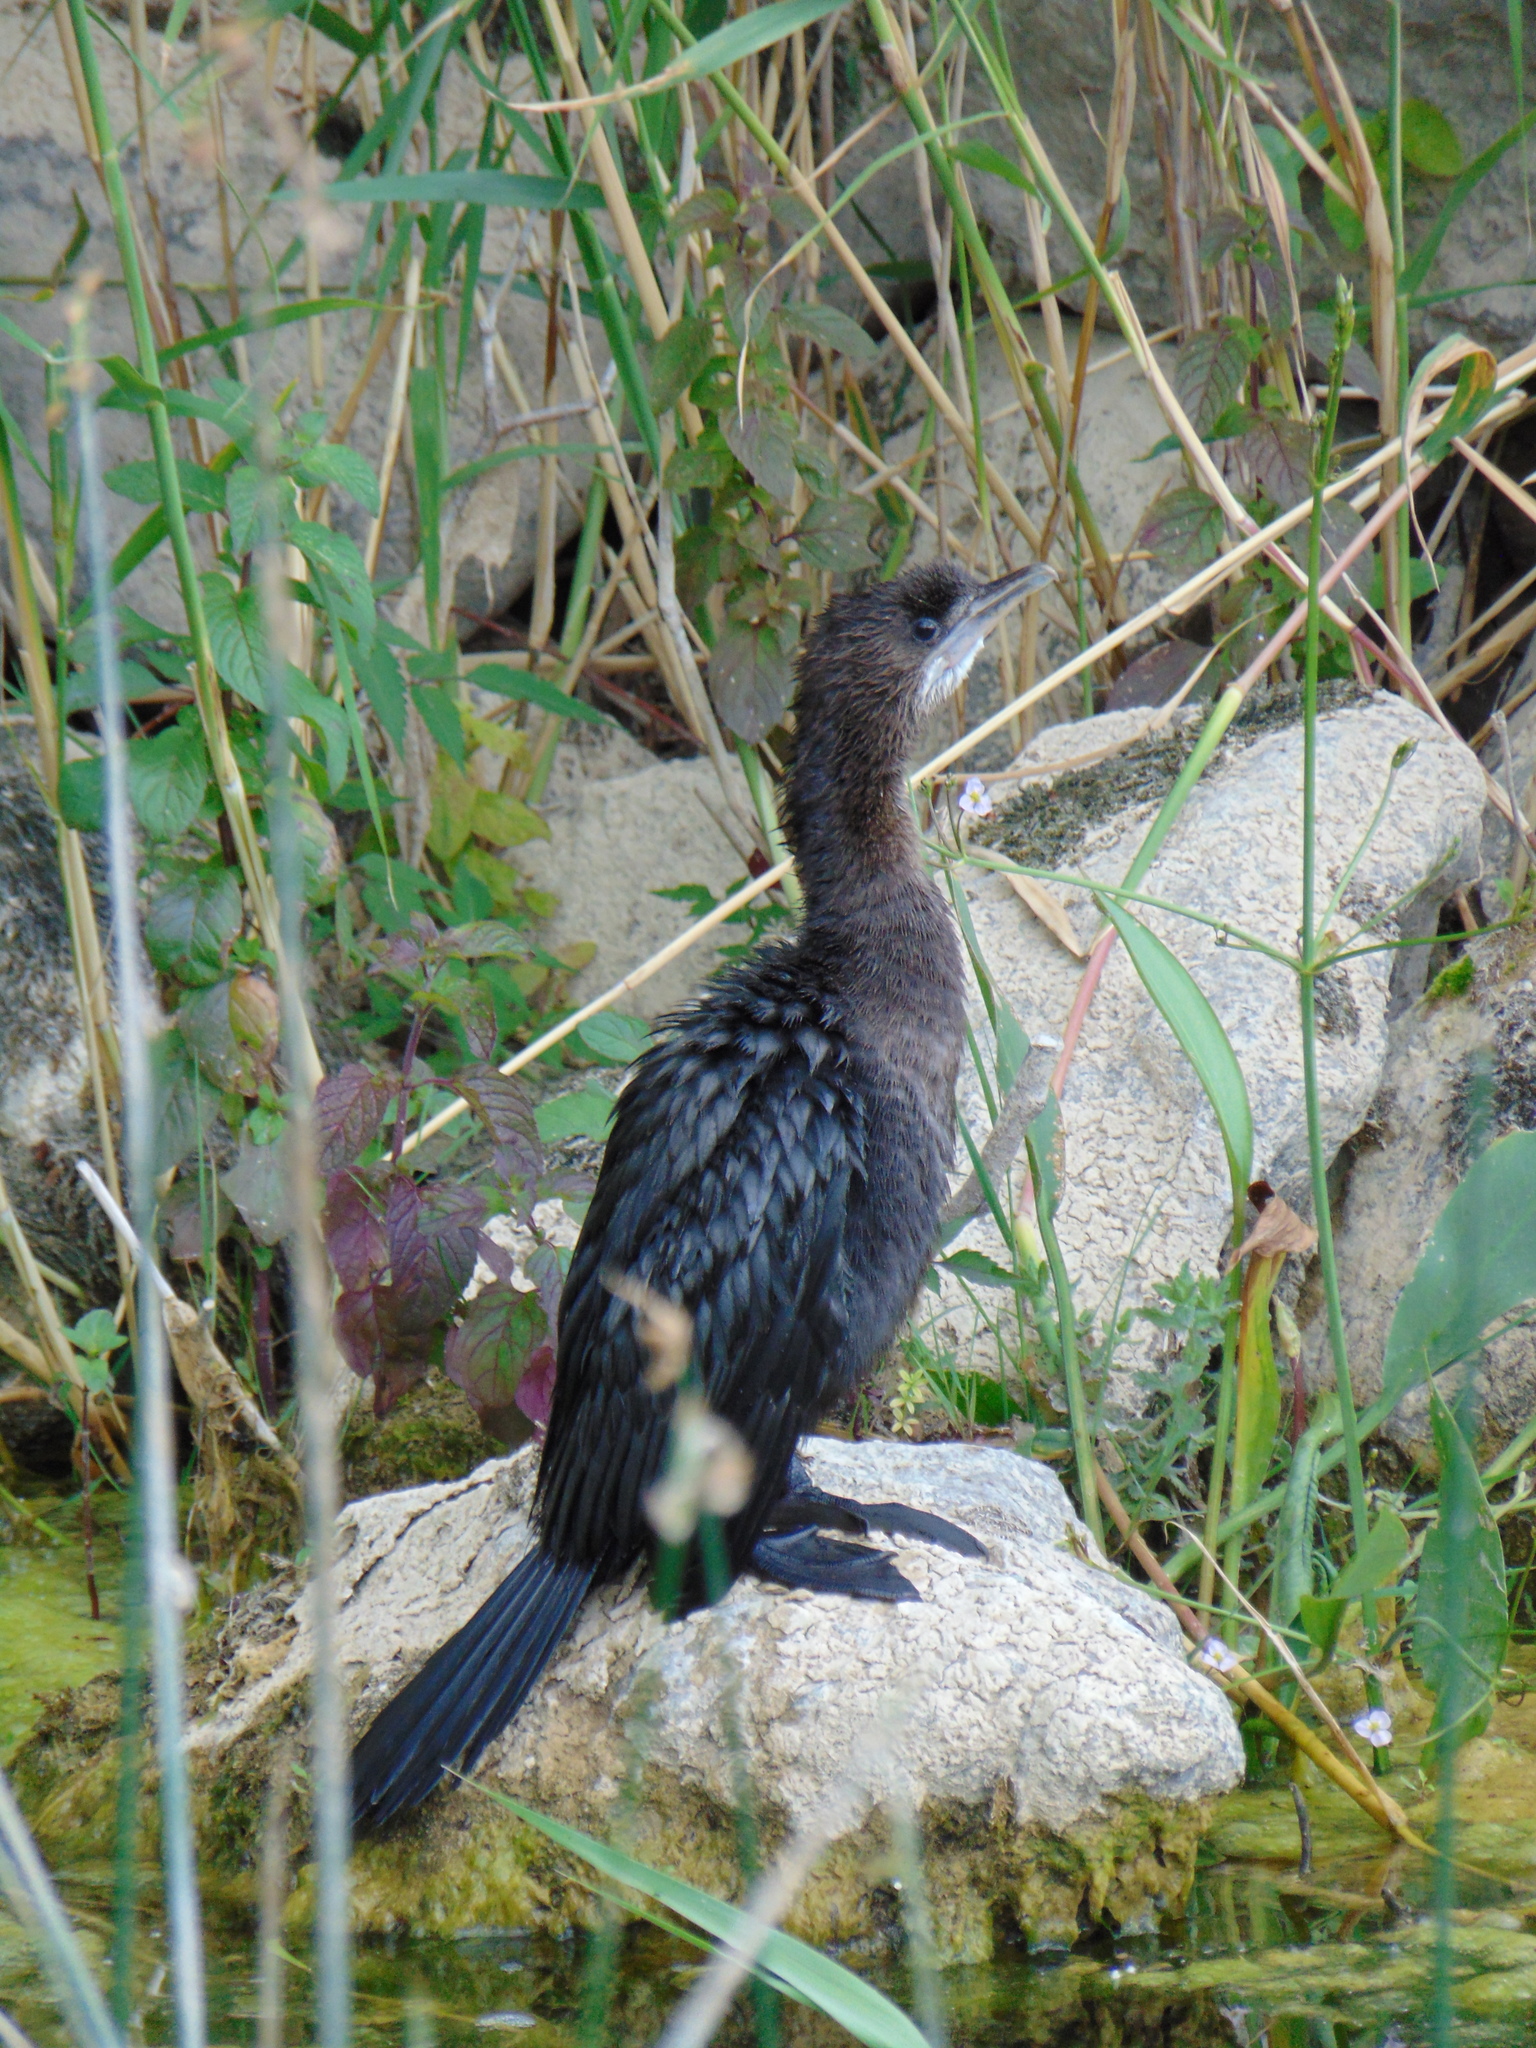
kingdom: Animalia
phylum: Chordata
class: Aves
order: Suliformes
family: Phalacrocoracidae
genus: Microcarbo
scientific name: Microcarbo pygmaeus
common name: Pygmy cormorant
